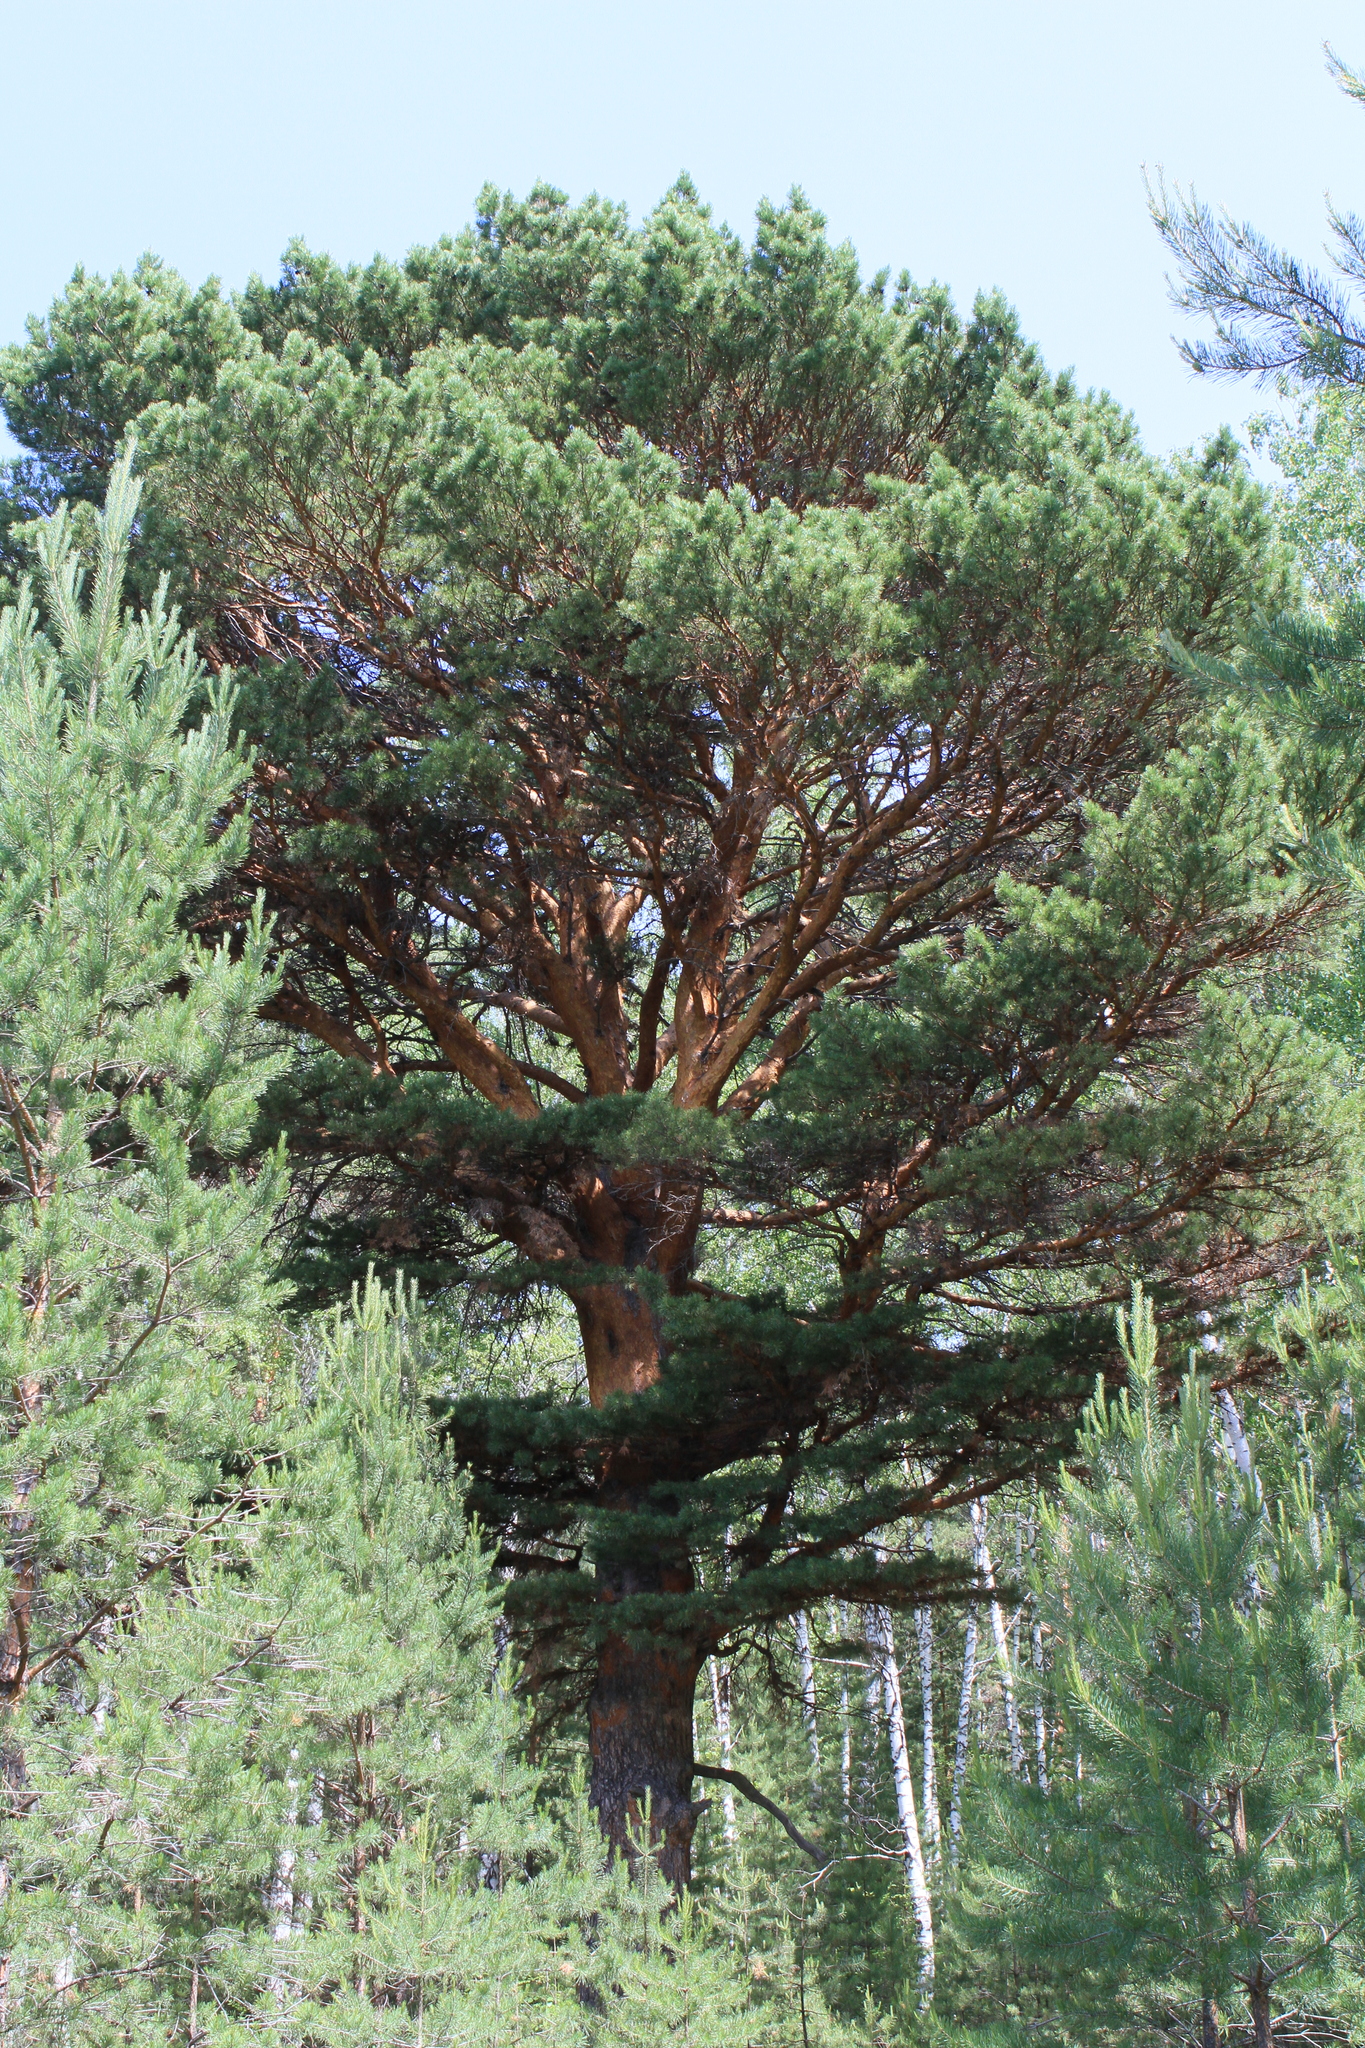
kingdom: Plantae
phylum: Tracheophyta
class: Pinopsida
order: Pinales
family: Pinaceae
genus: Pinus
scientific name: Pinus sylvestris
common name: Scots pine
